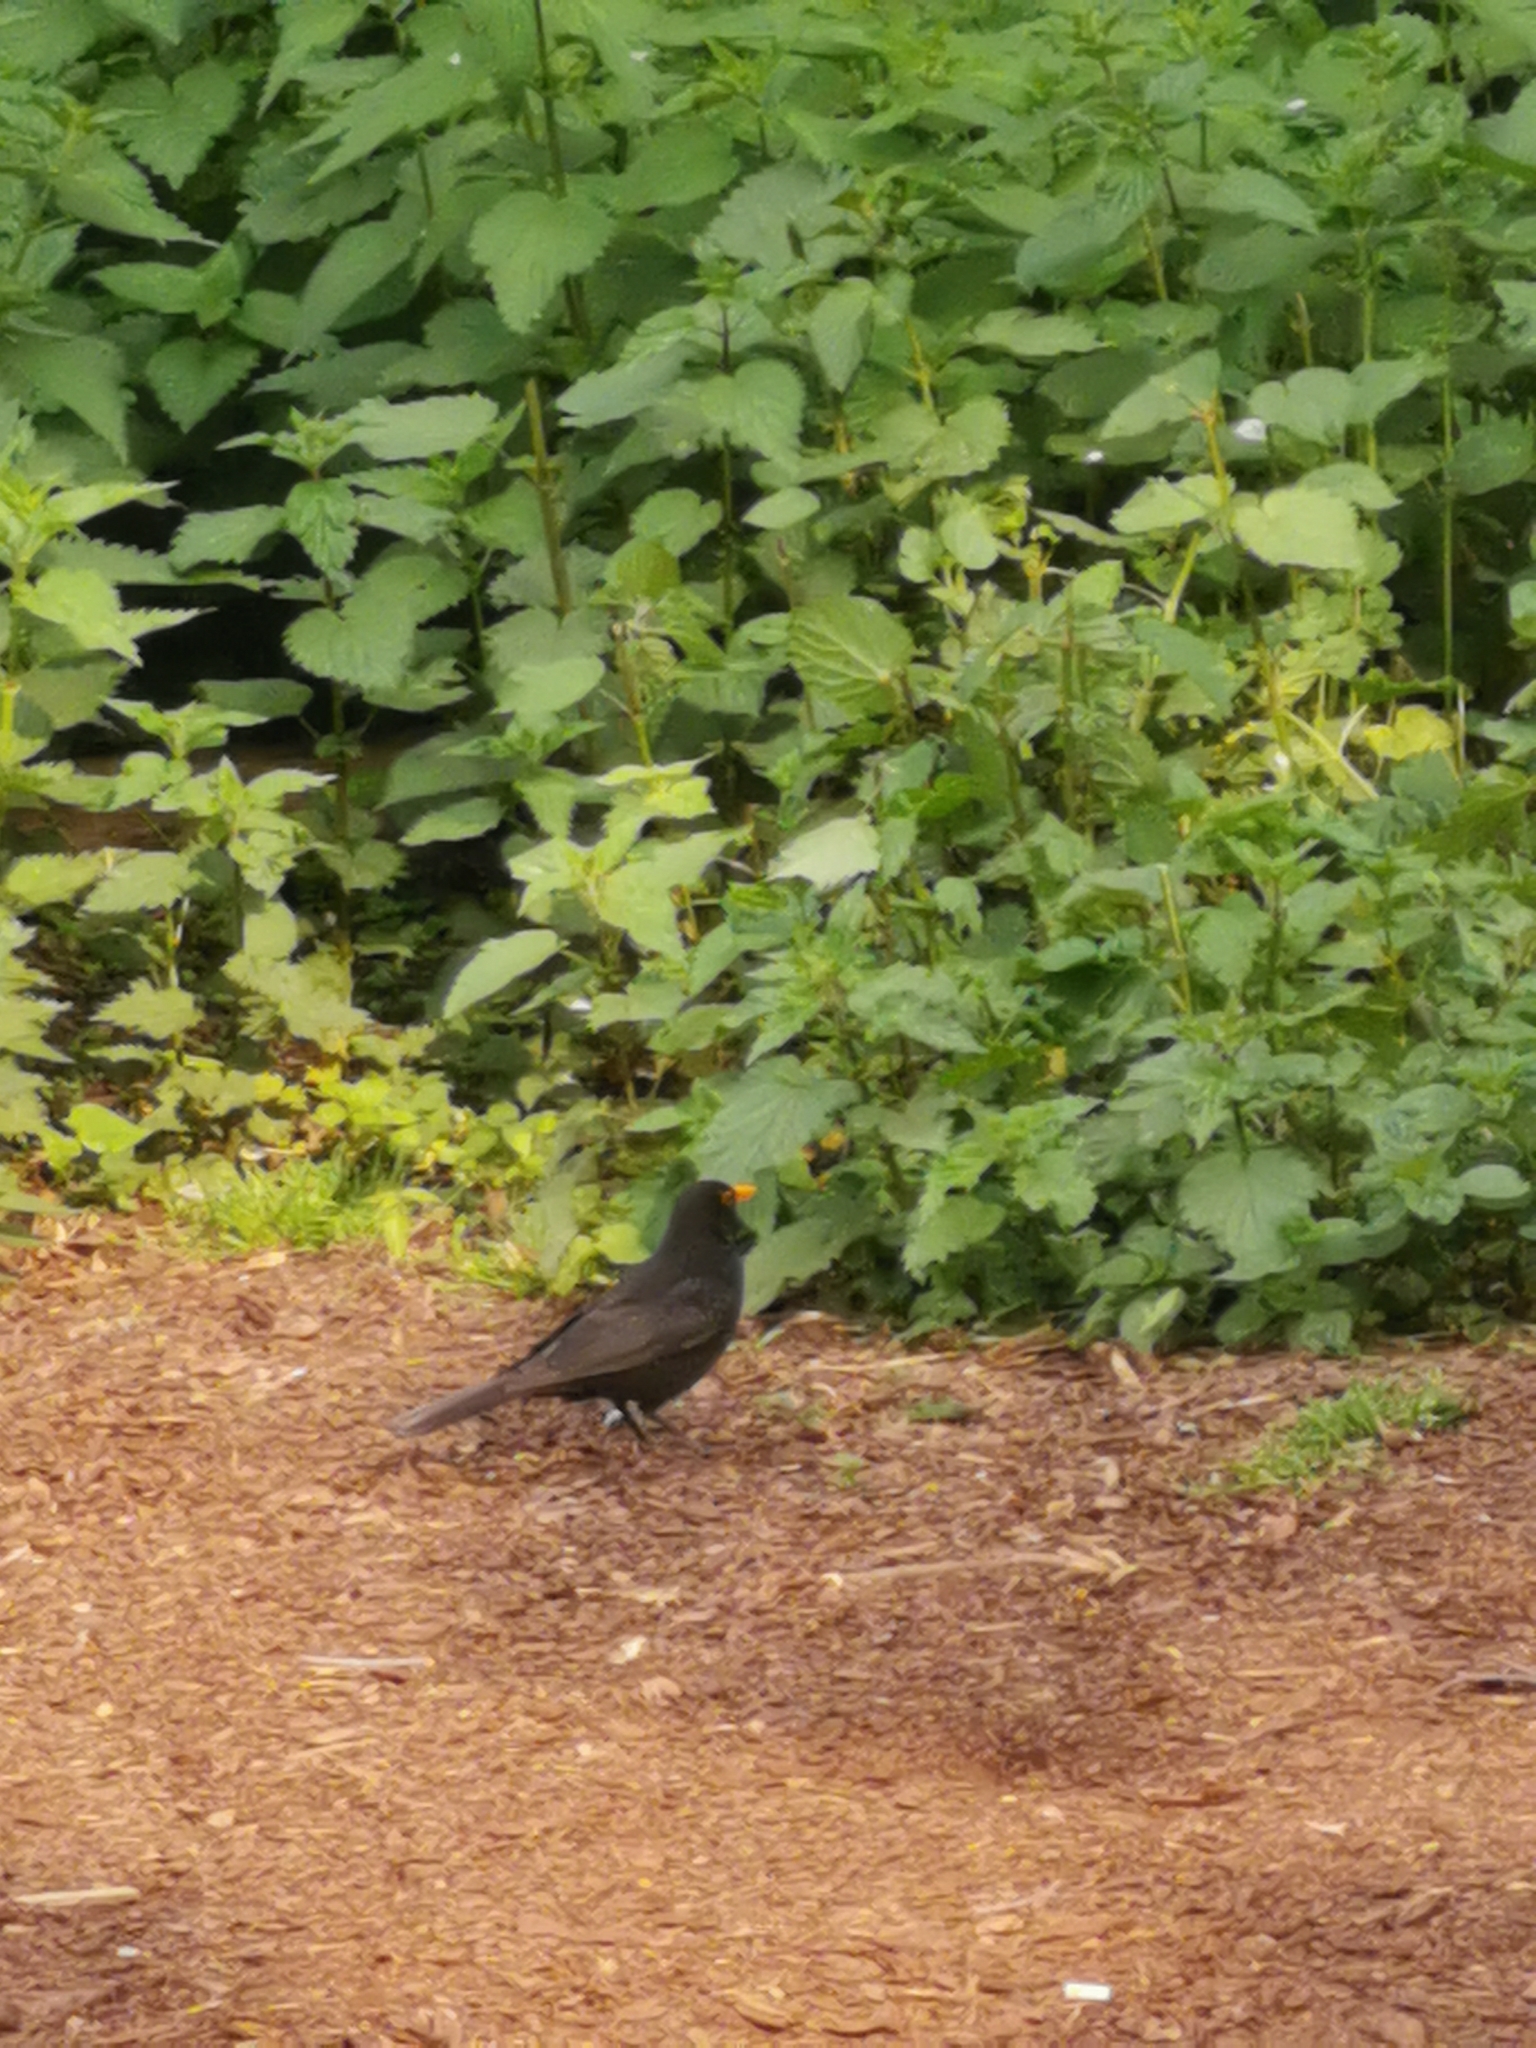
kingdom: Animalia
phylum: Chordata
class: Aves
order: Passeriformes
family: Turdidae
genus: Turdus
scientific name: Turdus merula
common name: Common blackbird
